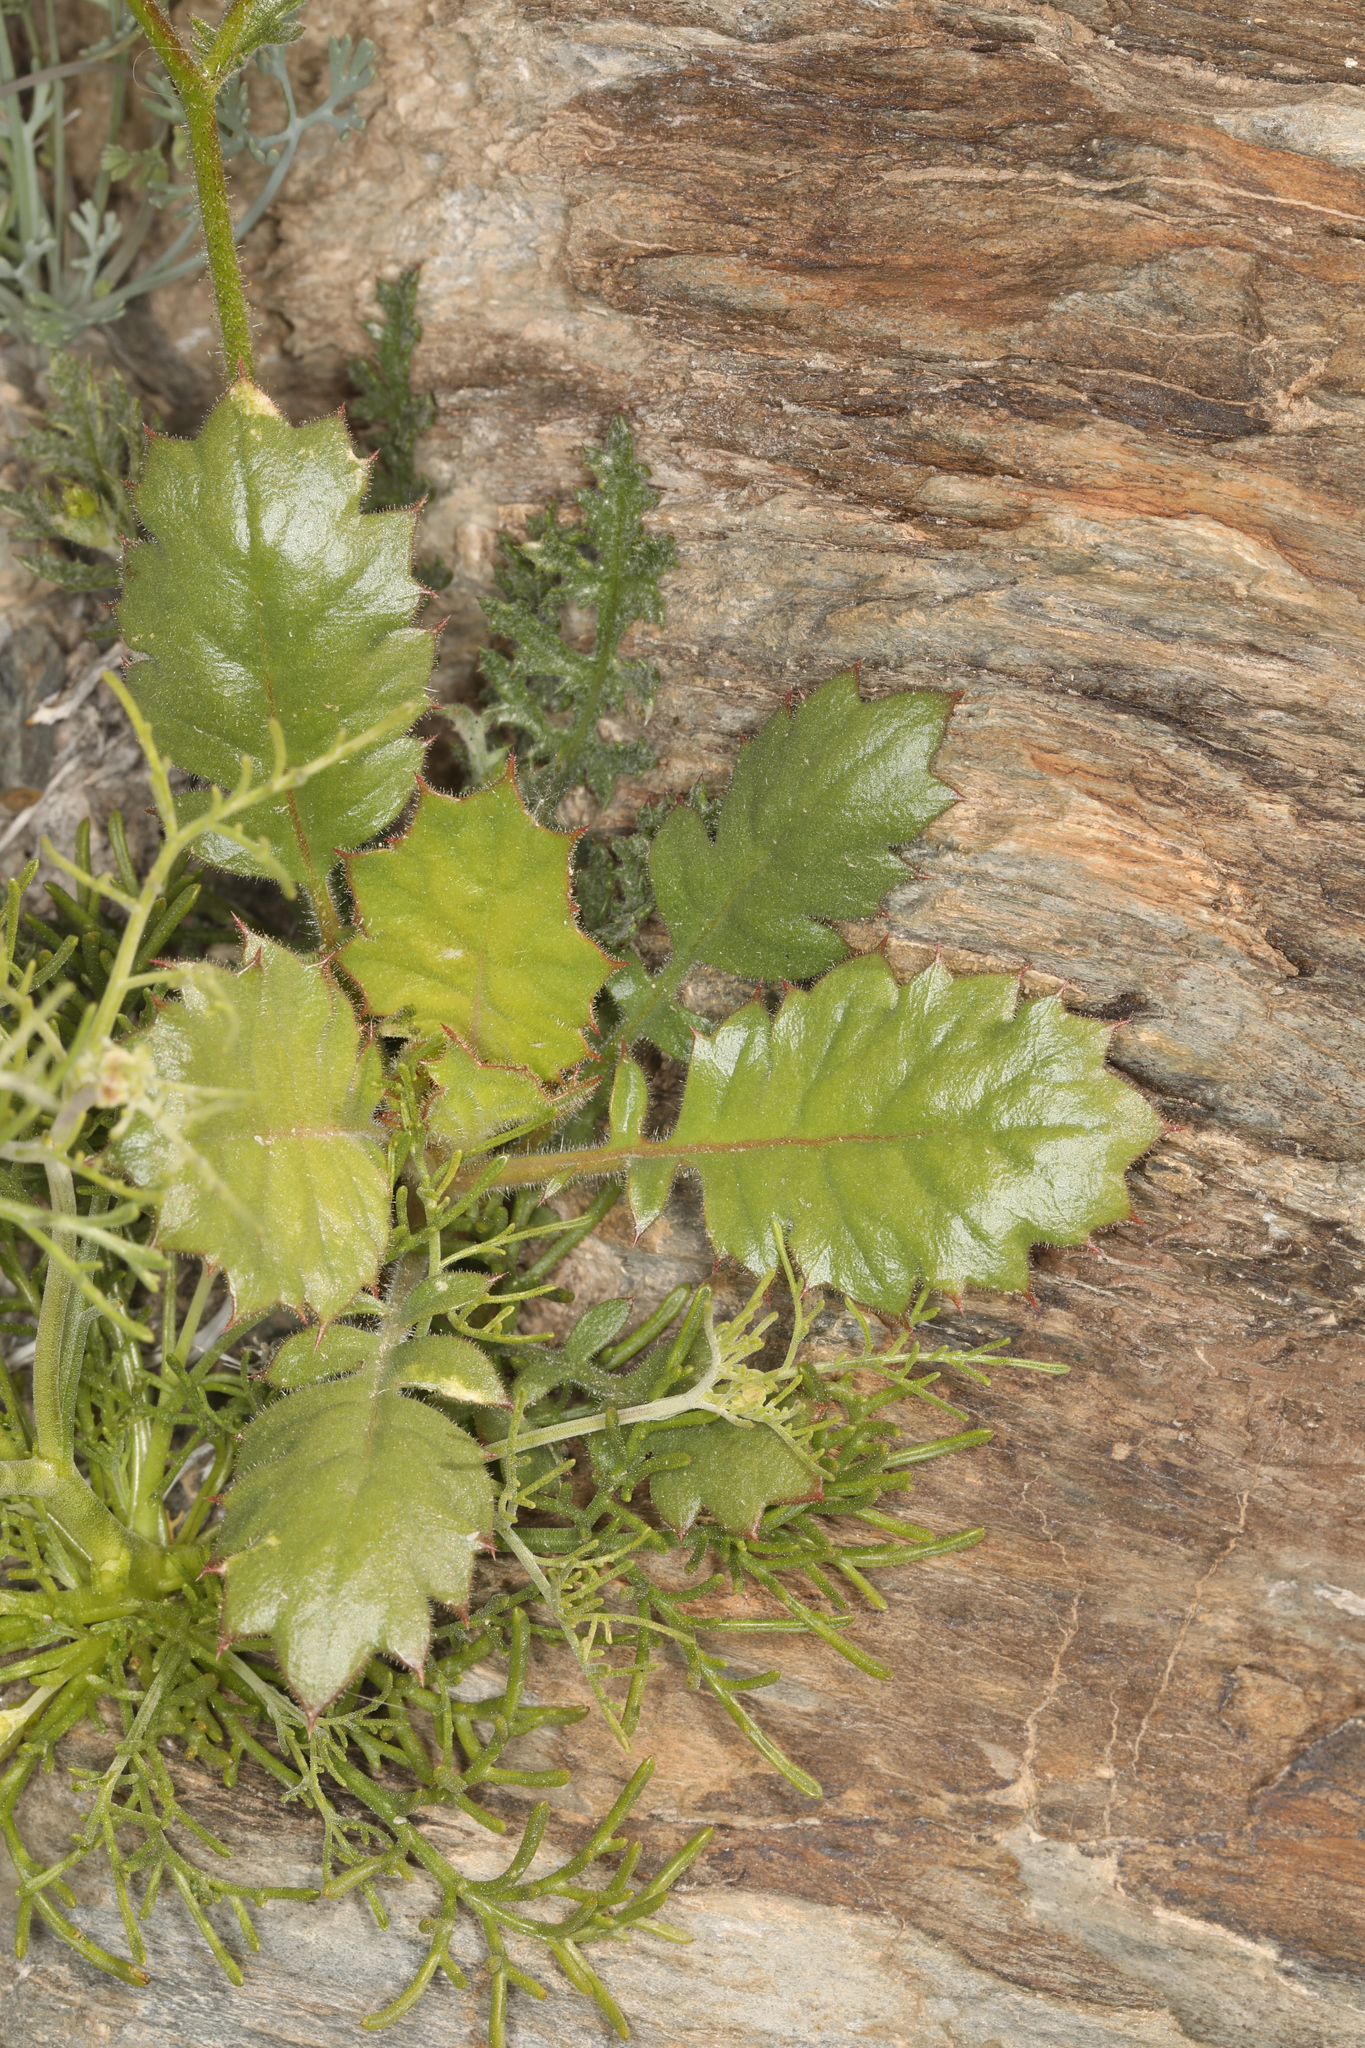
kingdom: Plantae
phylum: Tracheophyta
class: Magnoliopsida
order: Ericales
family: Polemoniaceae
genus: Aliciella
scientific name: Aliciella latifolia
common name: Broad-leaf gilia
